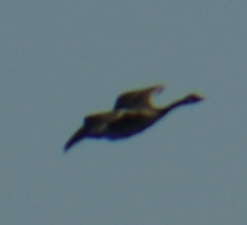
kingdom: Animalia
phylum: Chordata
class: Aves
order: Anseriformes
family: Anatidae
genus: Branta
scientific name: Branta canadensis
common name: Canada goose
